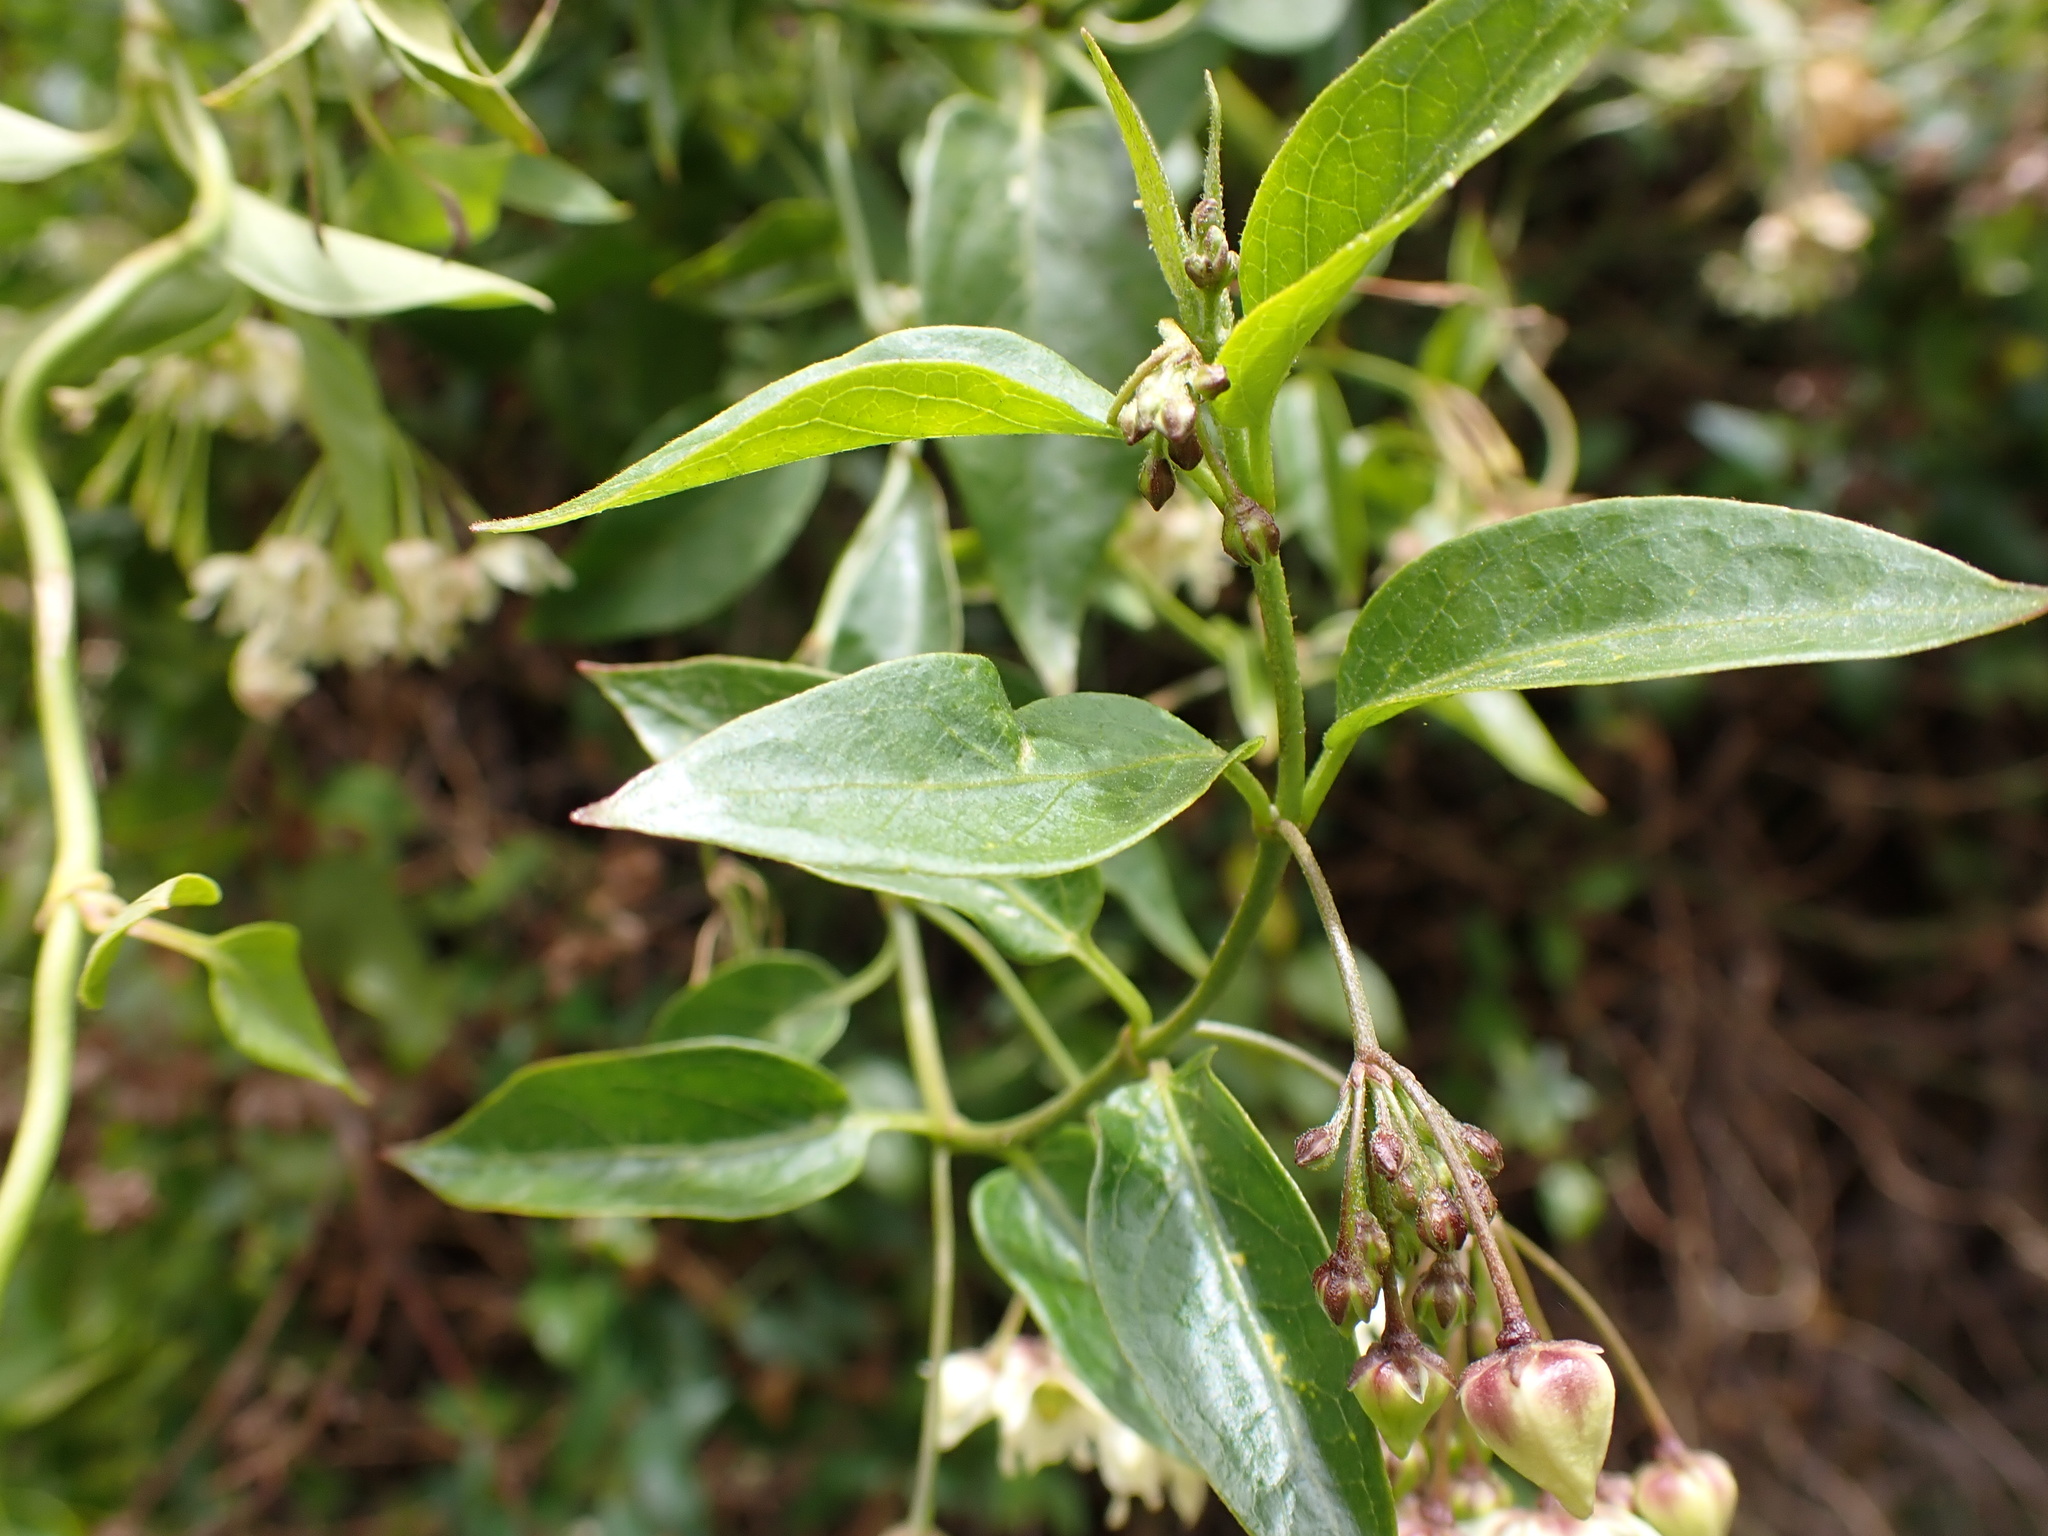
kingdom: Plantae
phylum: Tracheophyta
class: Magnoliopsida
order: Gentianales
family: Apocynaceae
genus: Jobinia
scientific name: Jobinia tarmensis
